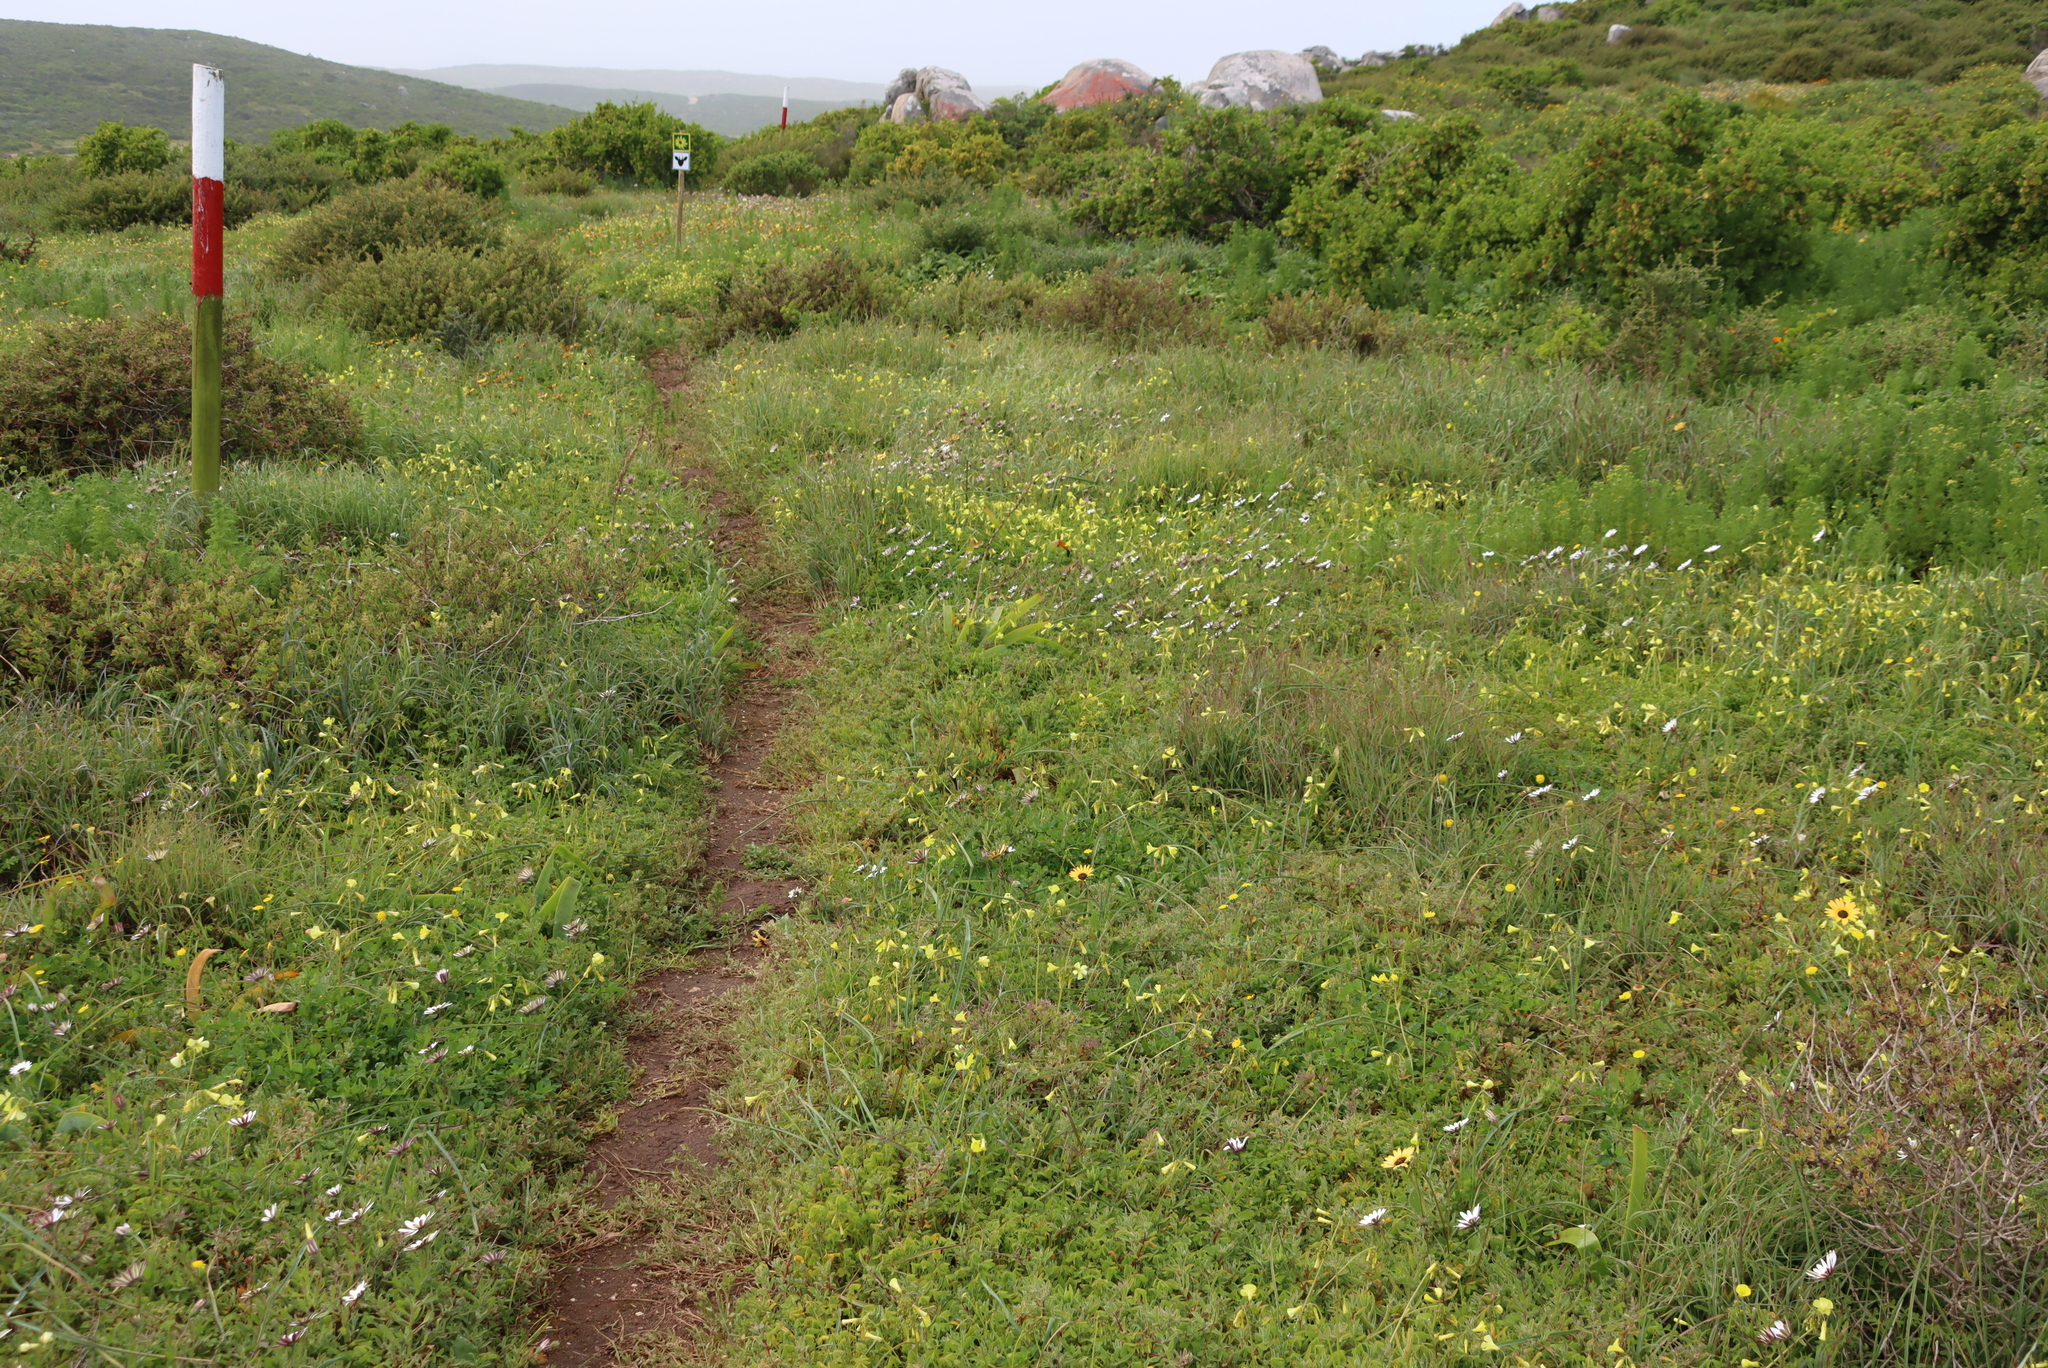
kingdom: Plantae
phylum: Tracheophyta
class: Magnoliopsida
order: Oxalidales
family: Oxalidaceae
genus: Oxalis
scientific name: Oxalis pes-caprae
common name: Bermuda-buttercup
